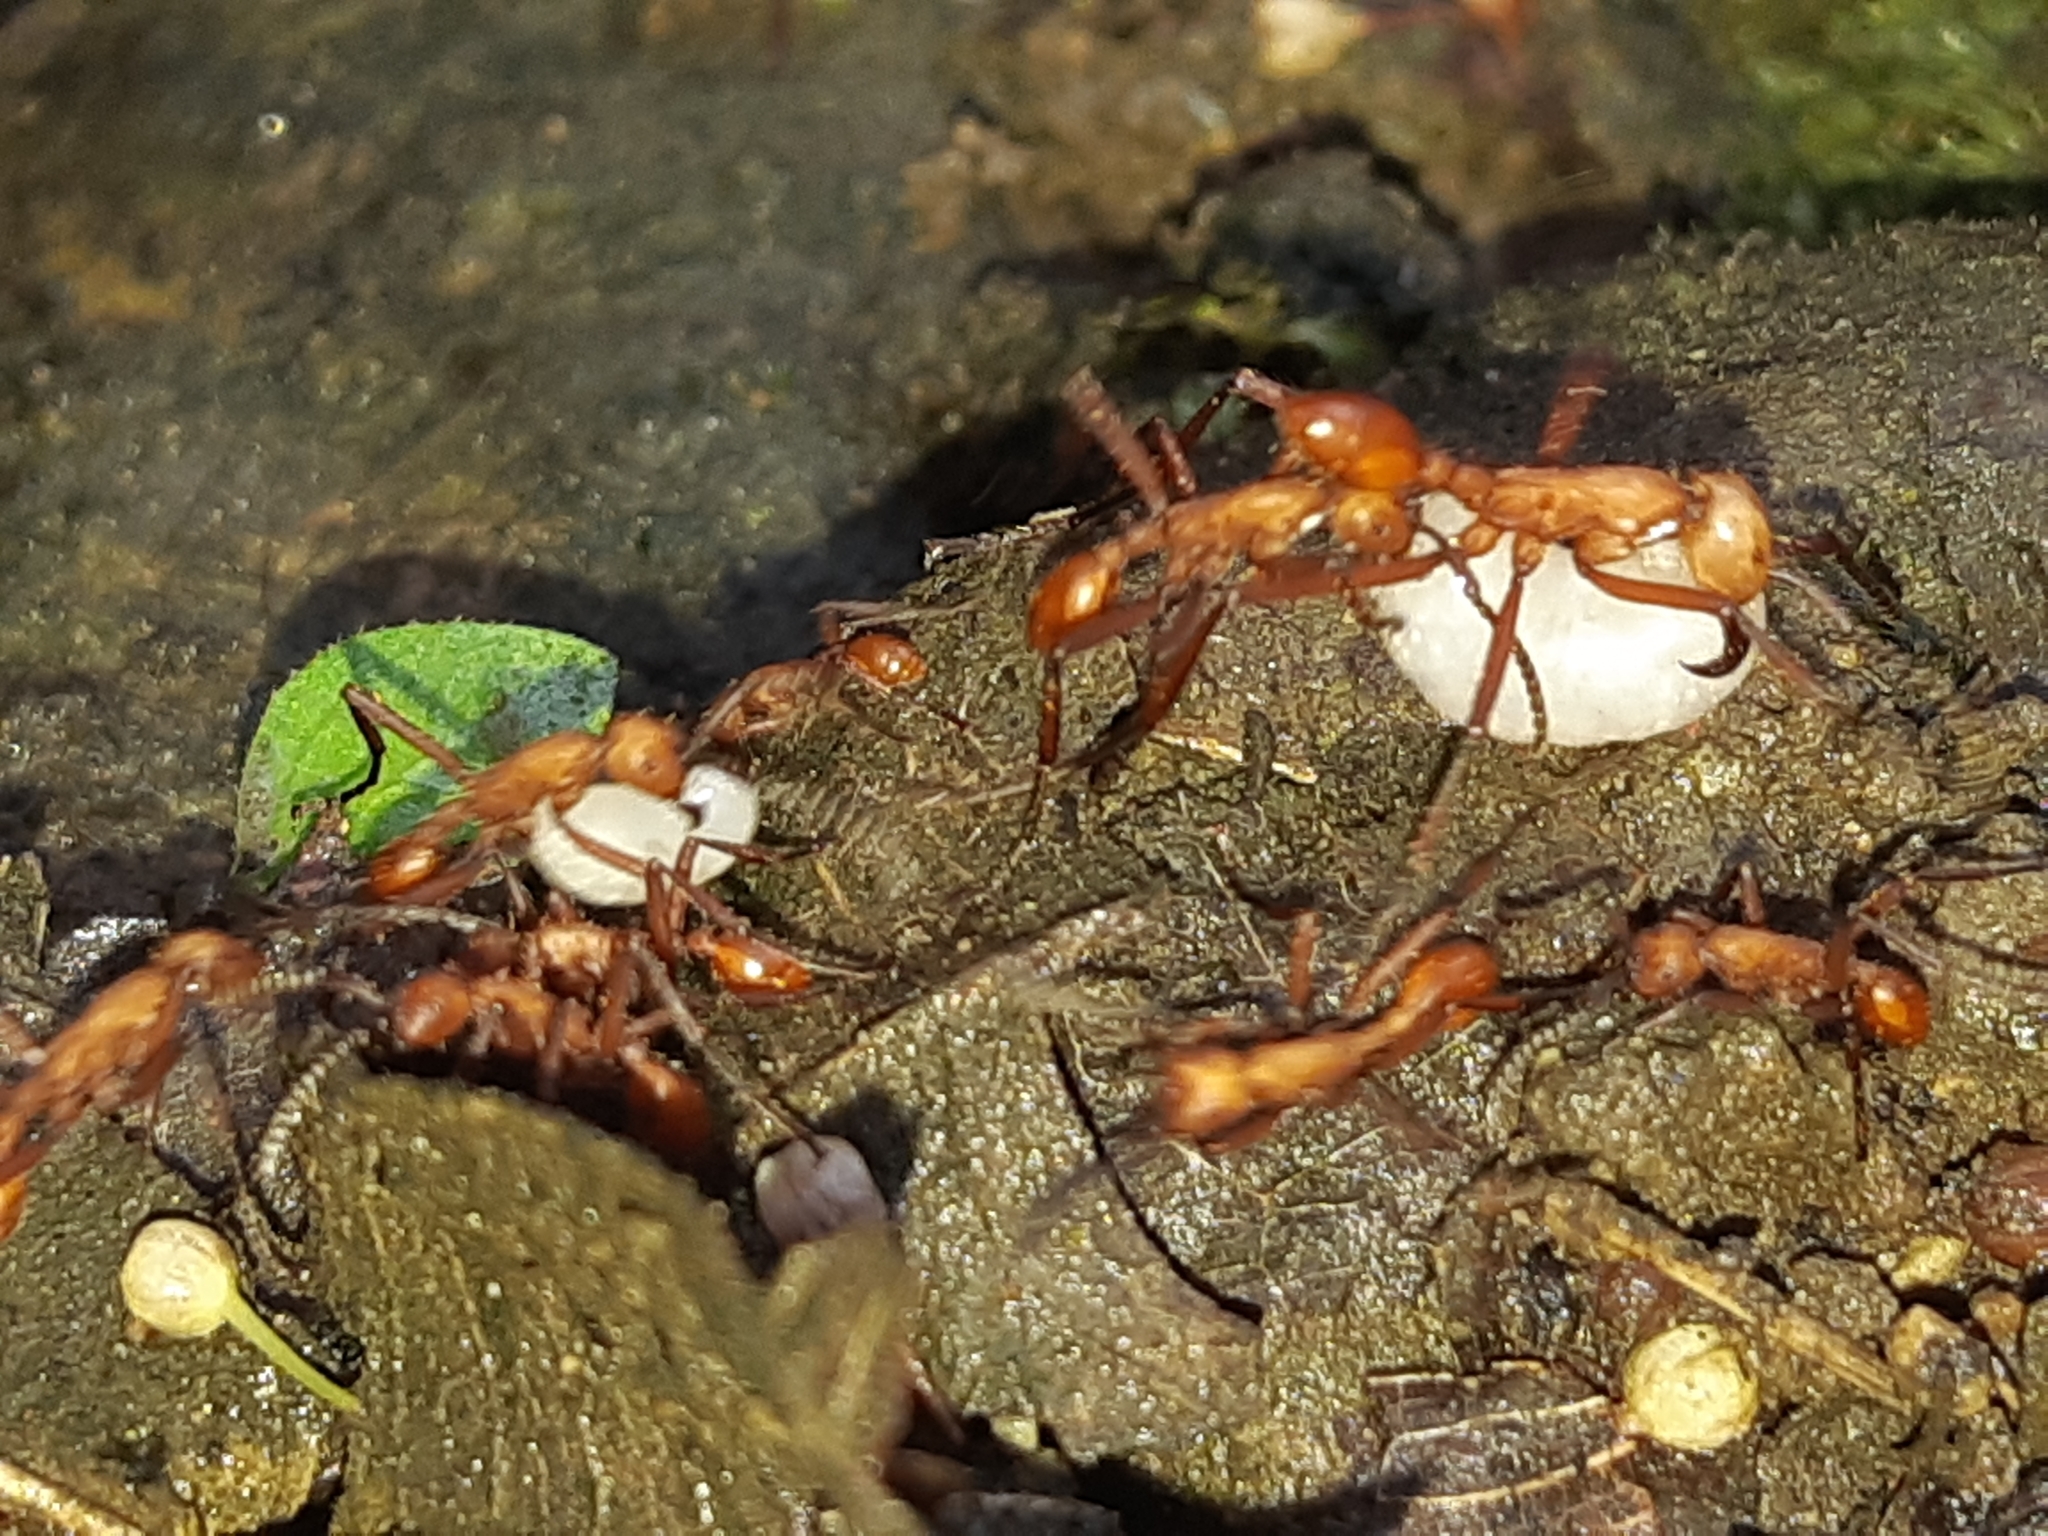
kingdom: Animalia
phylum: Arthropoda
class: Insecta
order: Hymenoptera
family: Formicidae
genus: Eciton
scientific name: Eciton hamatum
